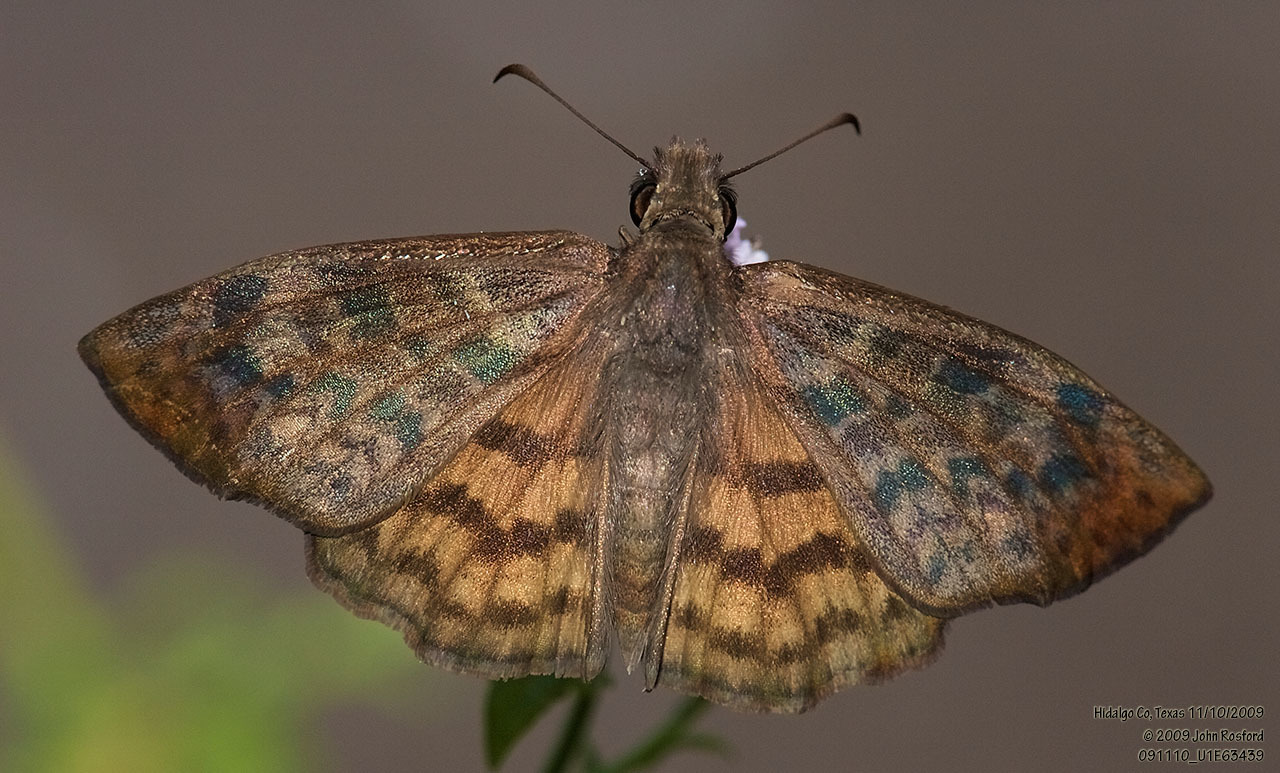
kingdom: Animalia
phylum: Arthropoda
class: Insecta
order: Lepidoptera
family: Hesperiidae
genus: Timochares
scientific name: Timochares ruptifasciata
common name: Brown-banded skipper
